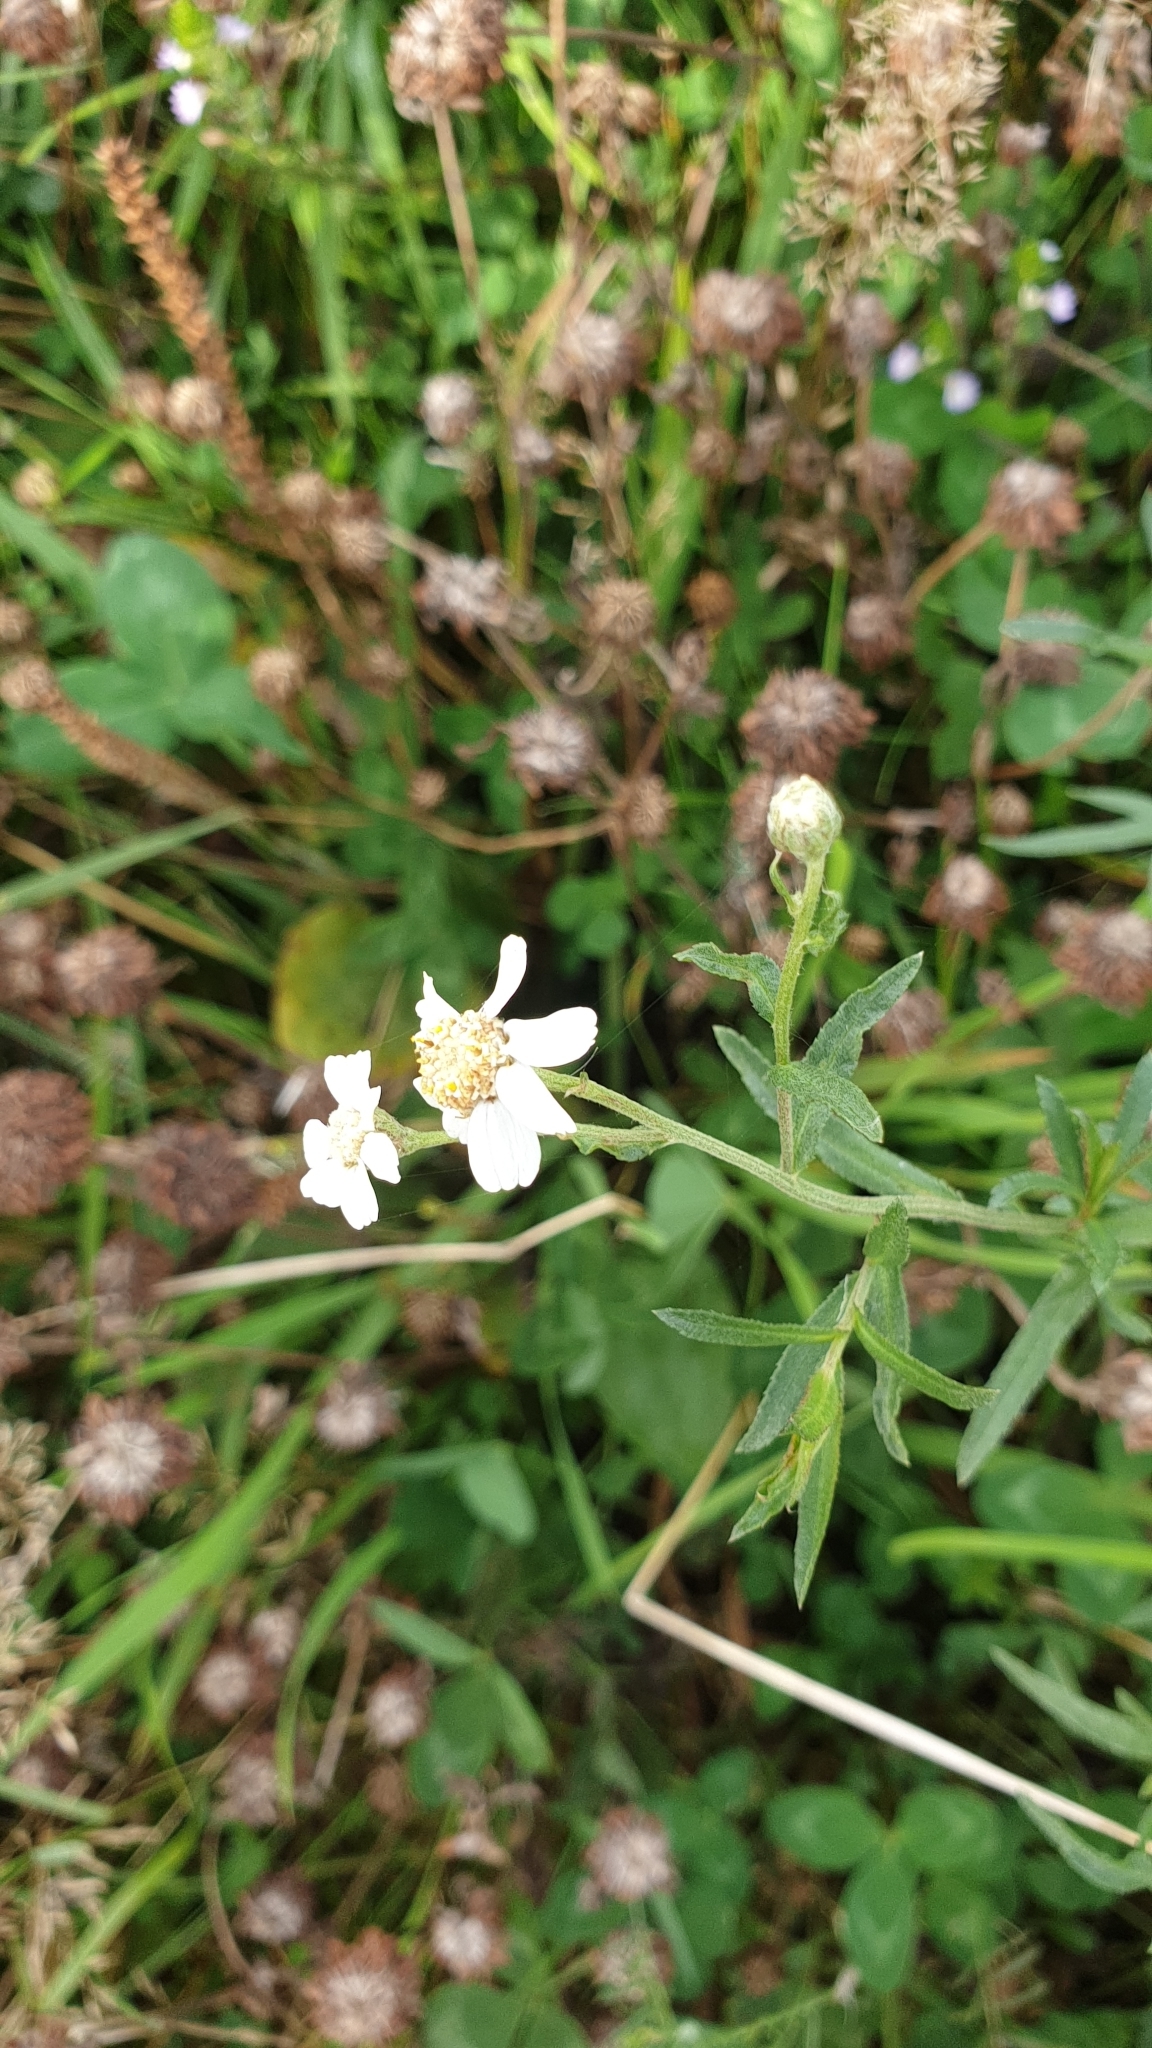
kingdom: Plantae
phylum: Tracheophyta
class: Magnoliopsida
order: Asterales
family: Asteraceae
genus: Achillea
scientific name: Achillea ptarmica
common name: Sneezeweed
